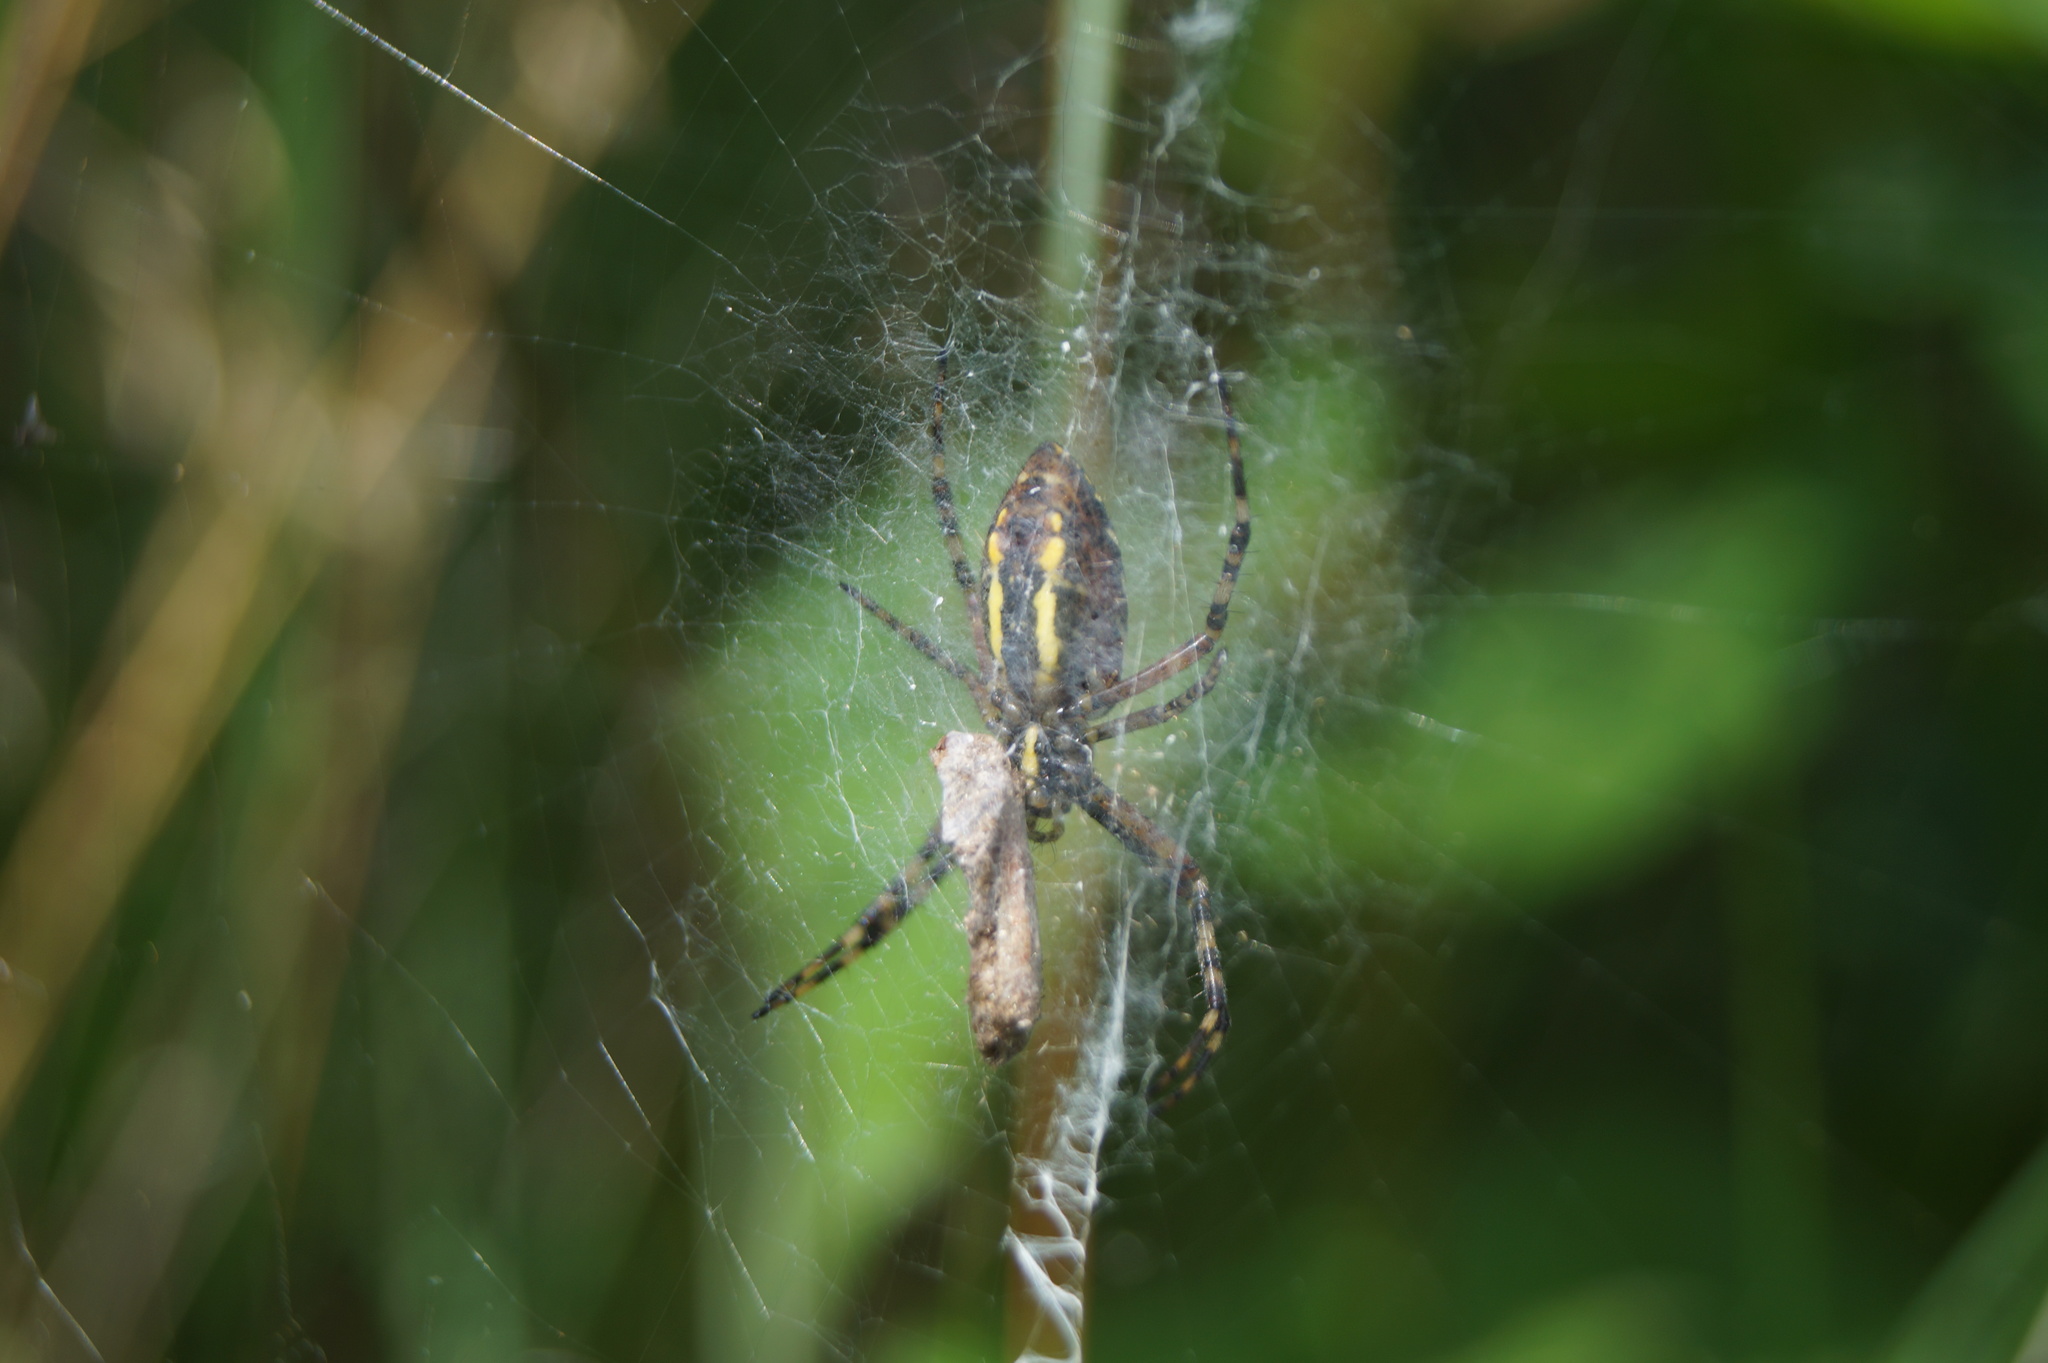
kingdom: Animalia
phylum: Arthropoda
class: Arachnida
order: Araneae
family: Araneidae
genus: Argiope
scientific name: Argiope bruennichi
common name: Wasp spider
